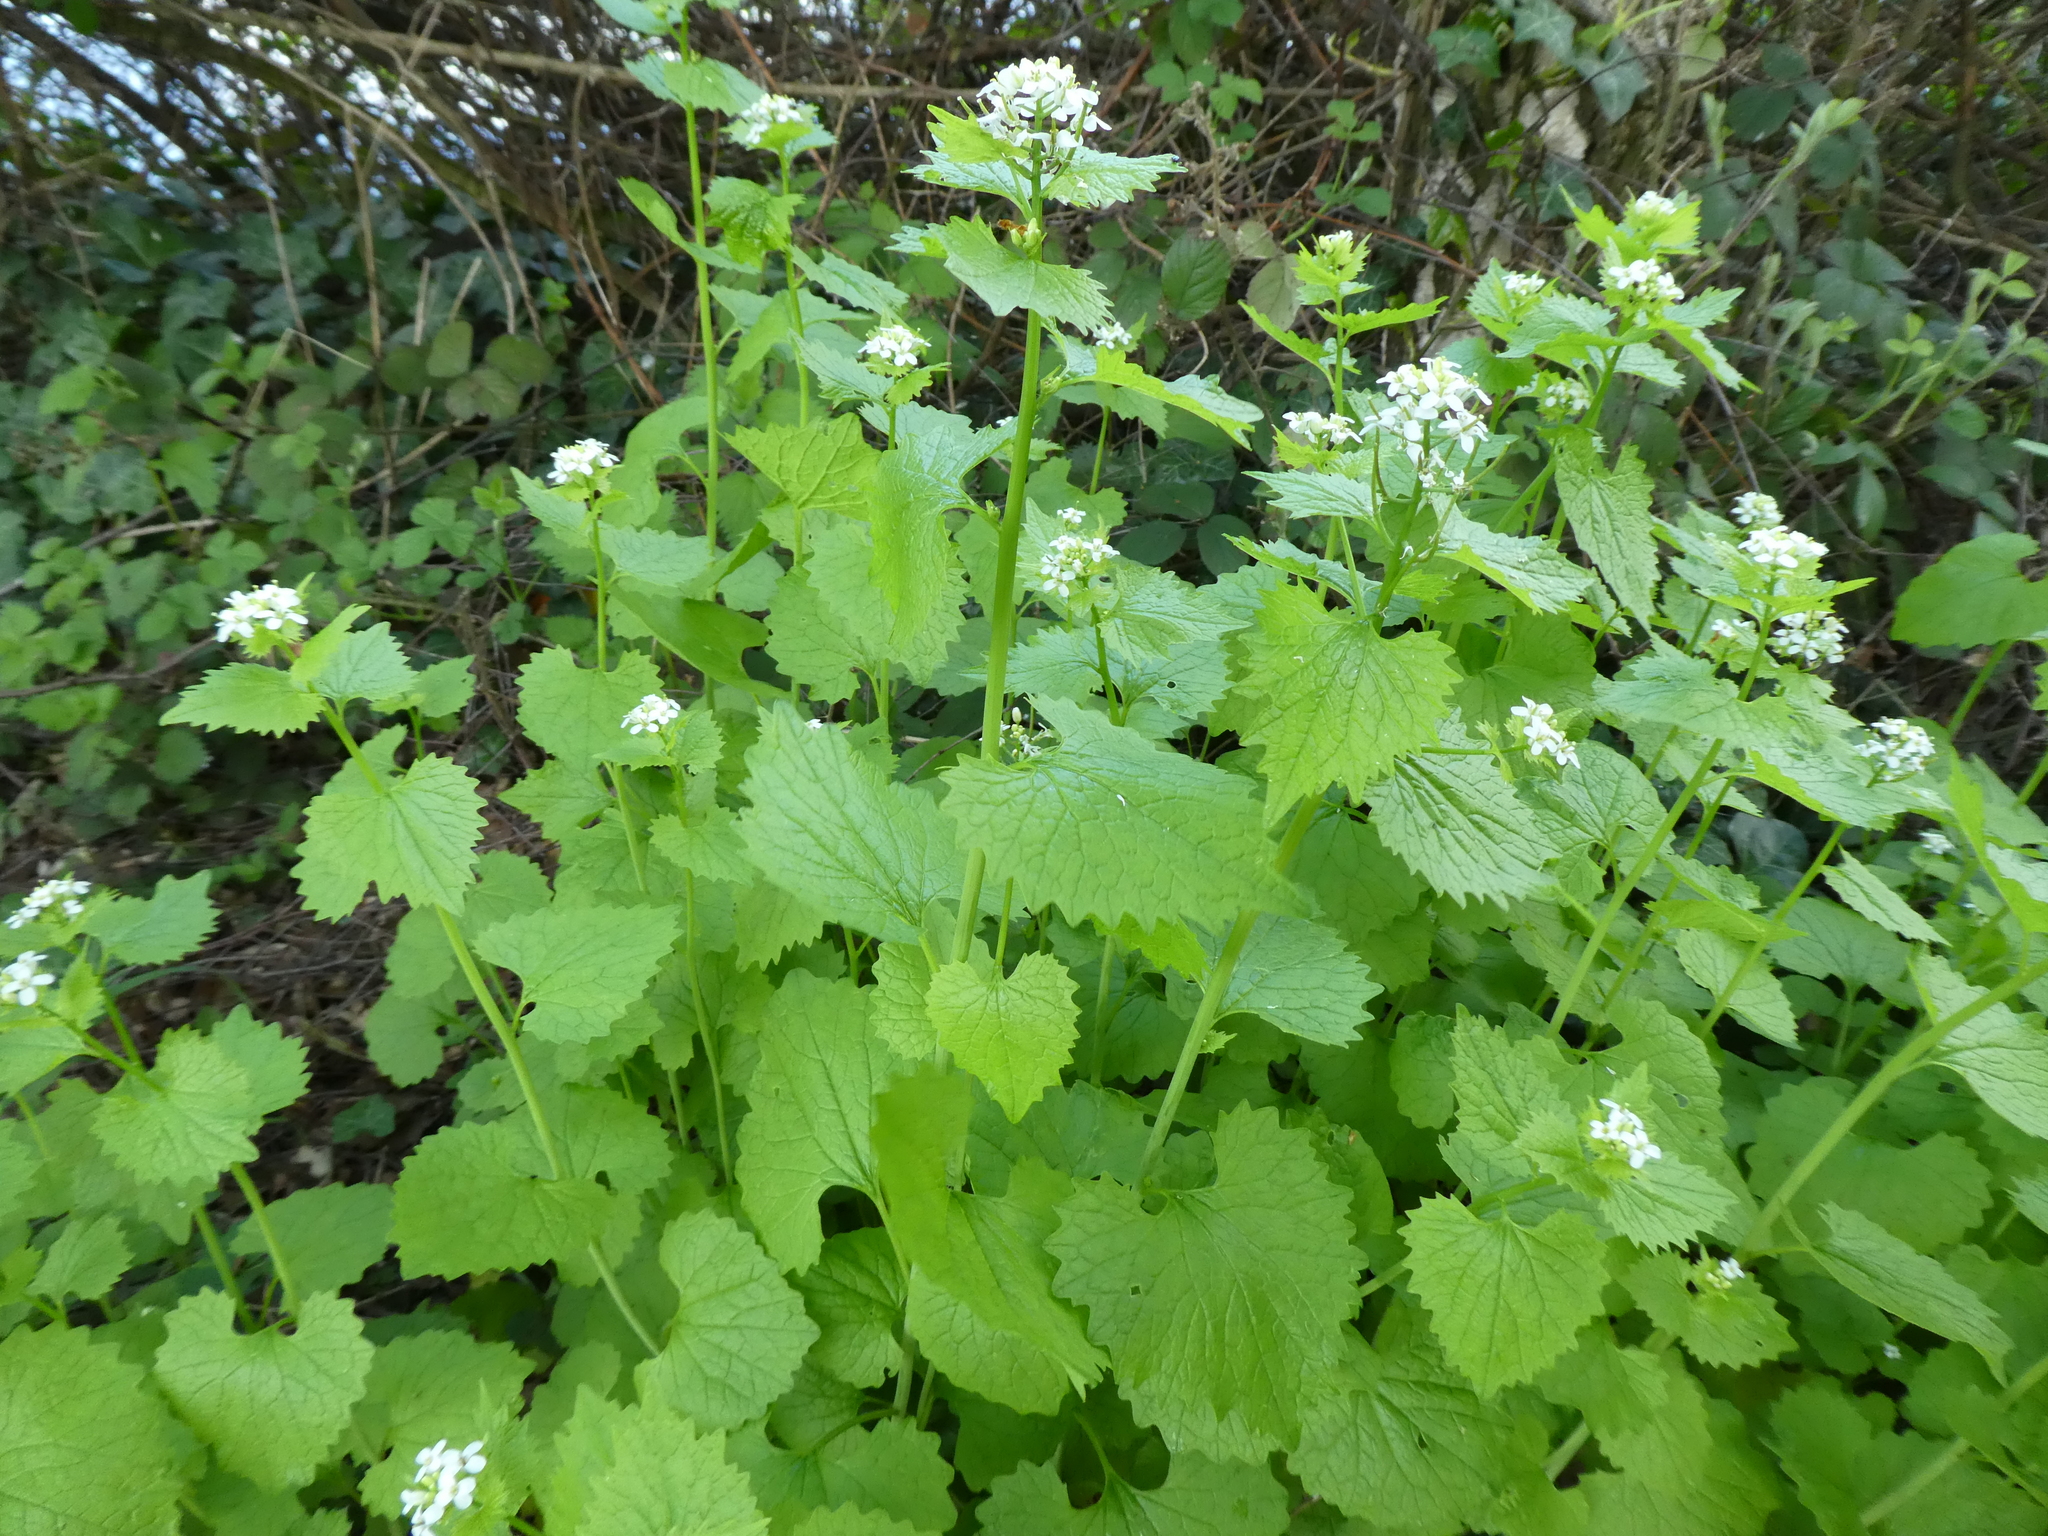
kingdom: Plantae
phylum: Tracheophyta
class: Magnoliopsida
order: Brassicales
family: Brassicaceae
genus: Alliaria
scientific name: Alliaria petiolata
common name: Garlic mustard
